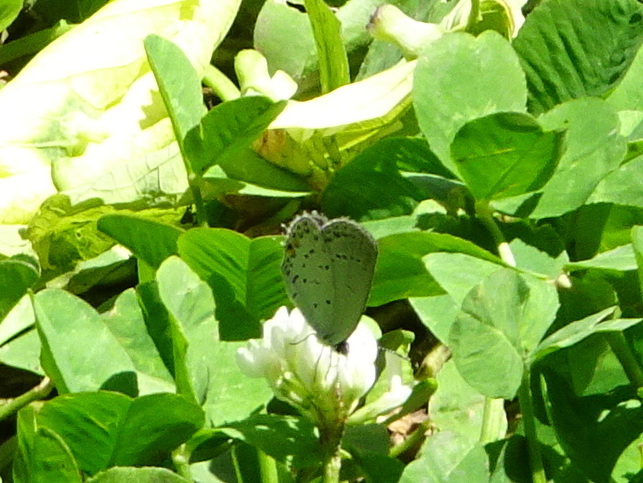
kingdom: Animalia
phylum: Arthropoda
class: Insecta
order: Lepidoptera
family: Lycaenidae
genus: Elkalyce
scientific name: Elkalyce comyntas
